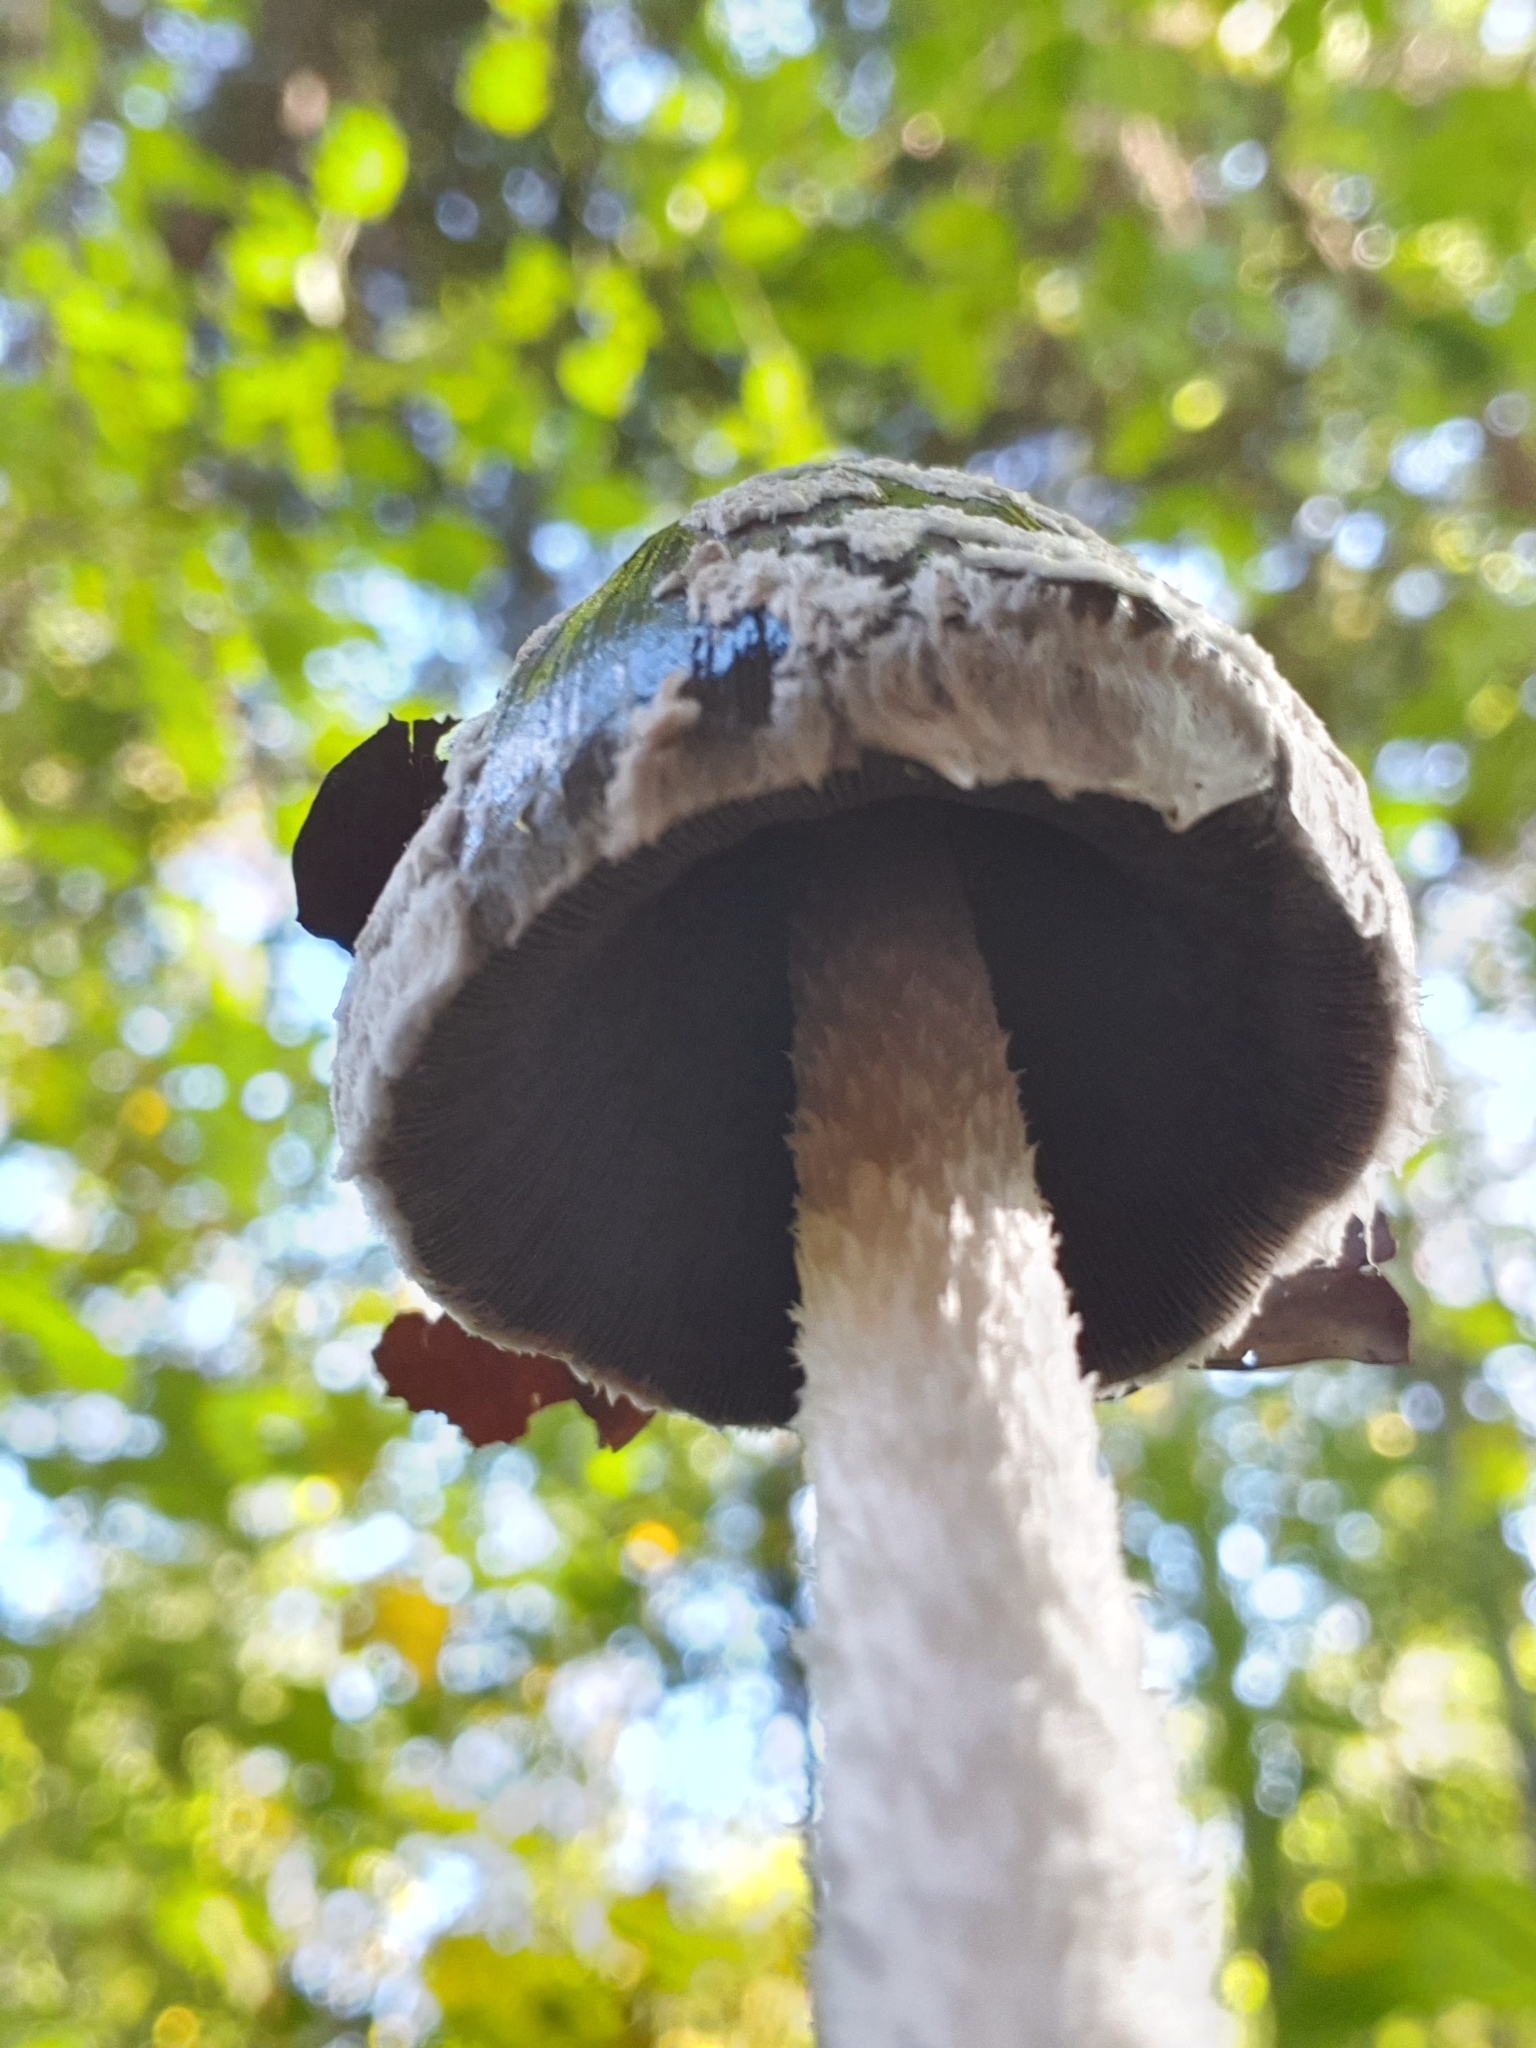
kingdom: Fungi
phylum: Basidiomycota
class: Agaricomycetes
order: Agaricales
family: Psathyrellaceae
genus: Coprinopsis
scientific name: Coprinopsis picacea
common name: Magpie inkcap
